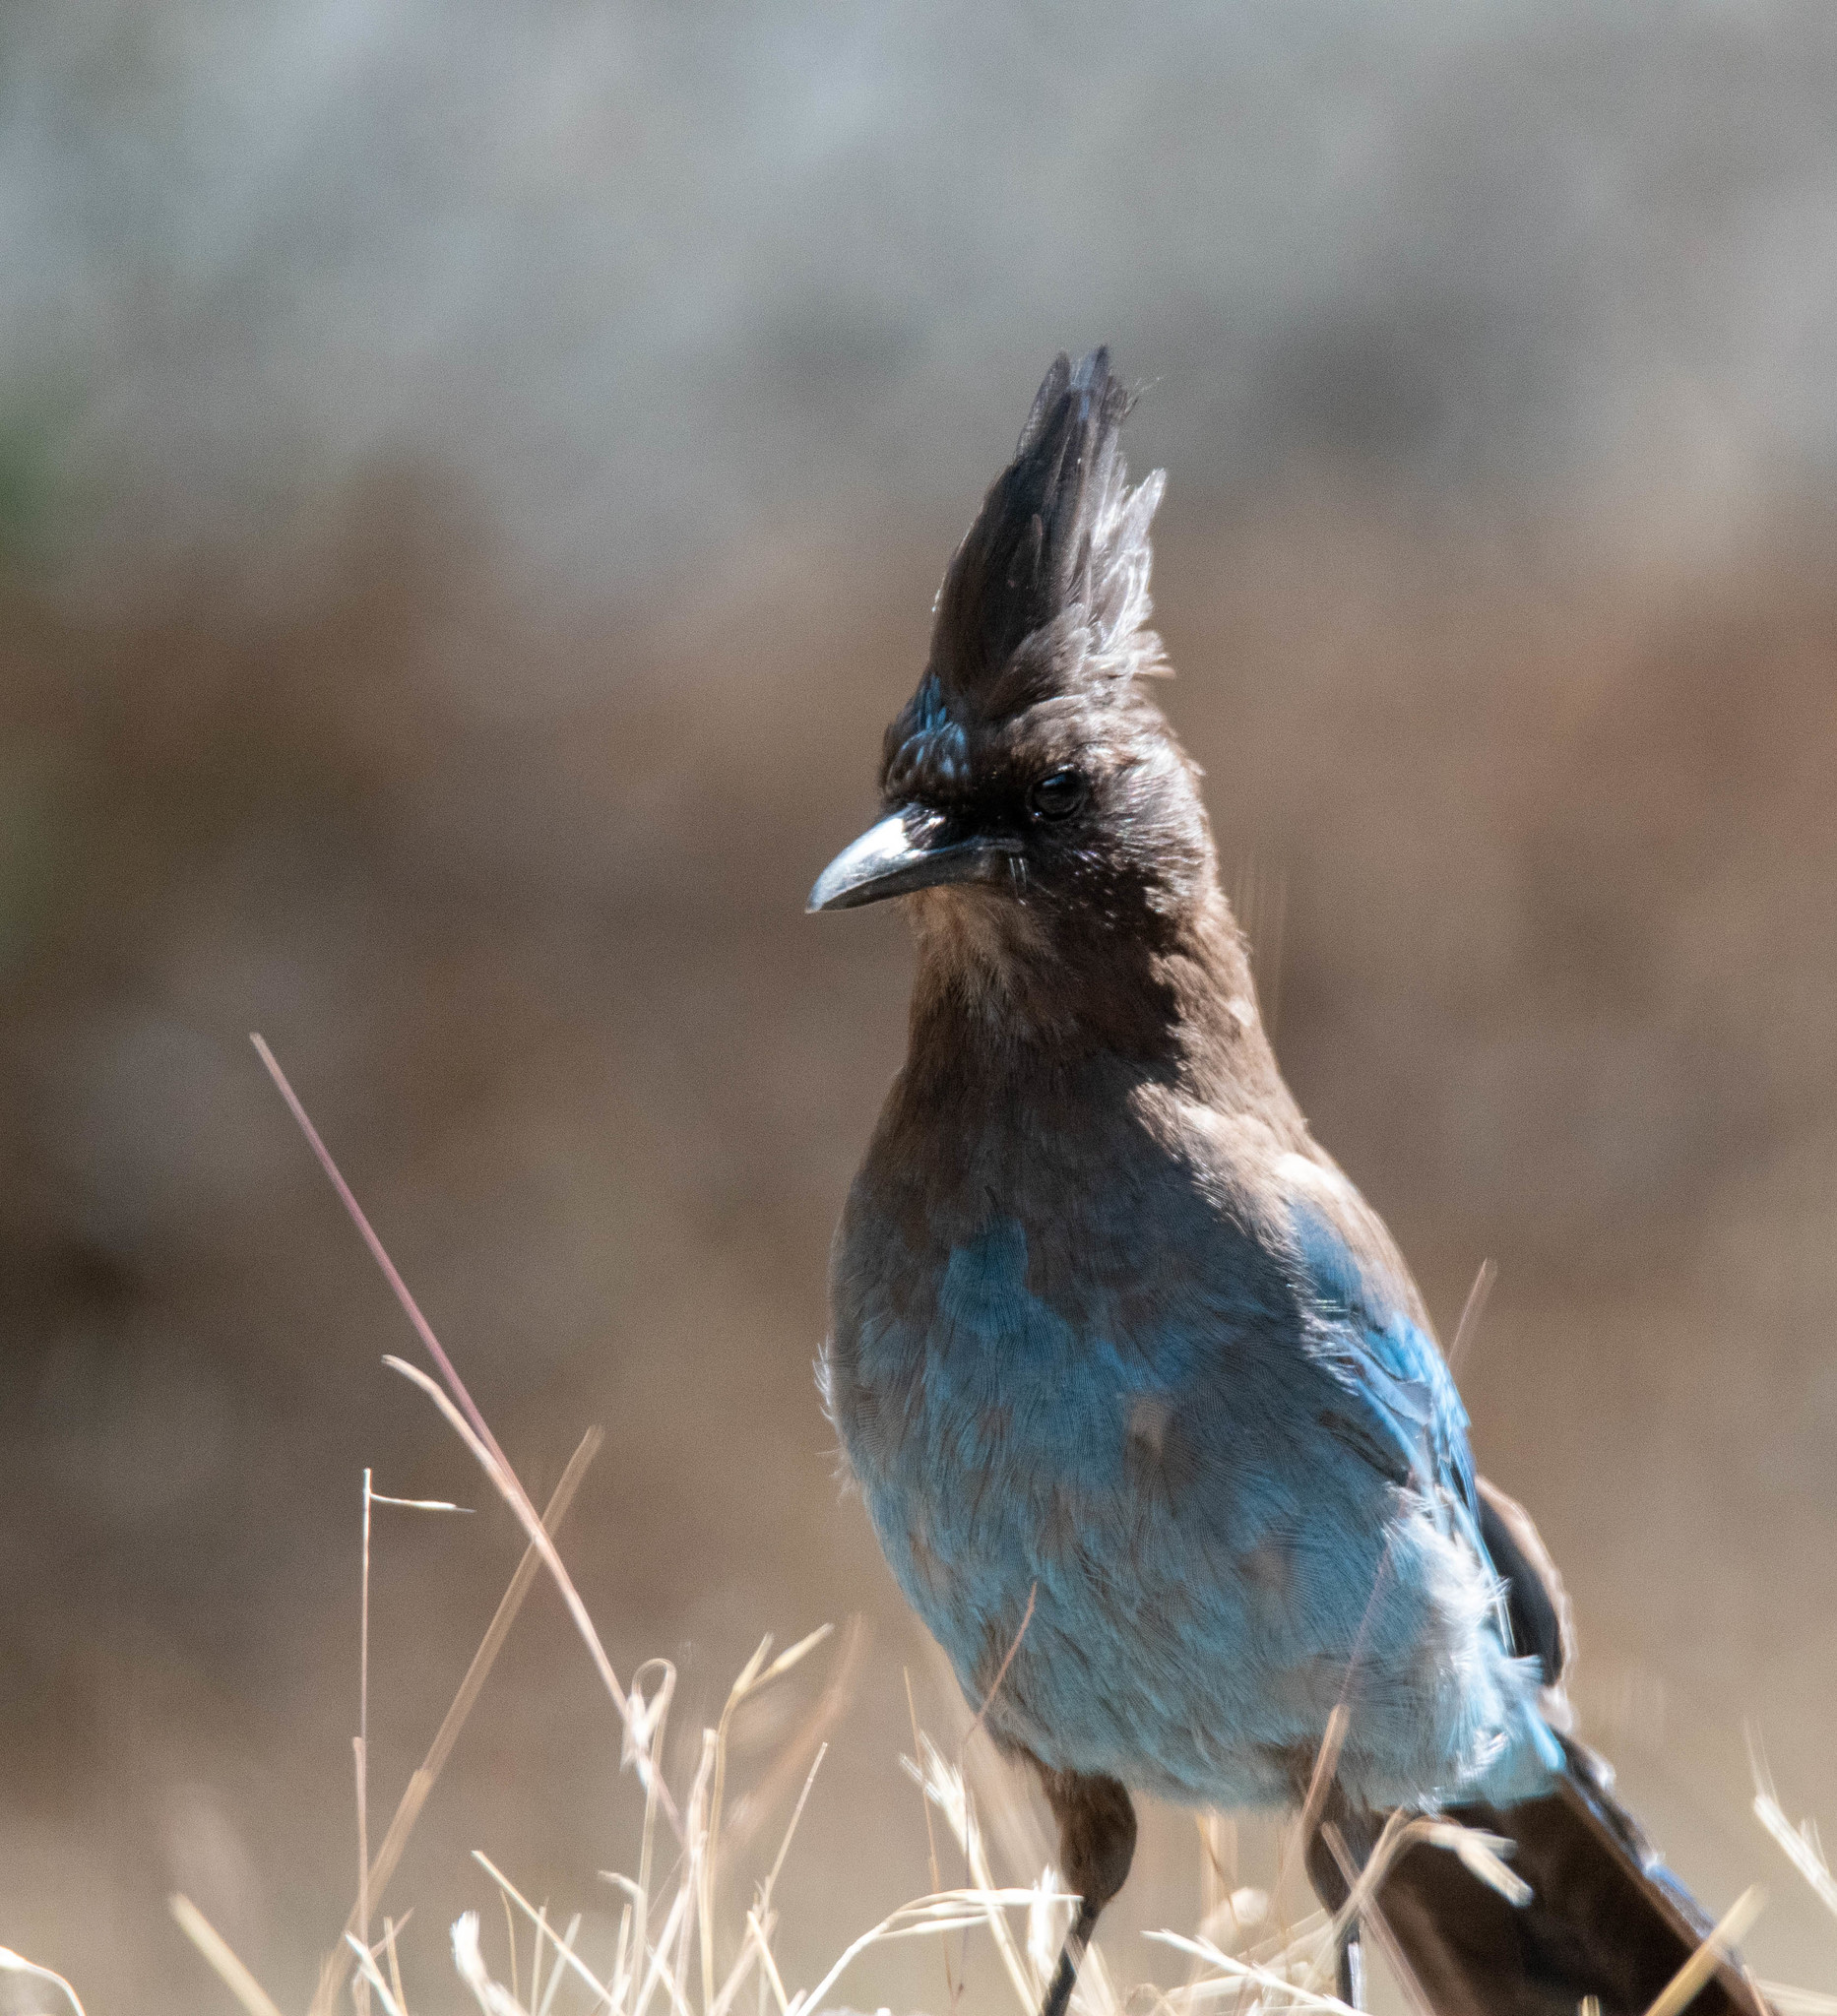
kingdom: Animalia
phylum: Chordata
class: Aves
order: Passeriformes
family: Corvidae
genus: Cyanocitta
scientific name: Cyanocitta stelleri
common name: Steller's jay
